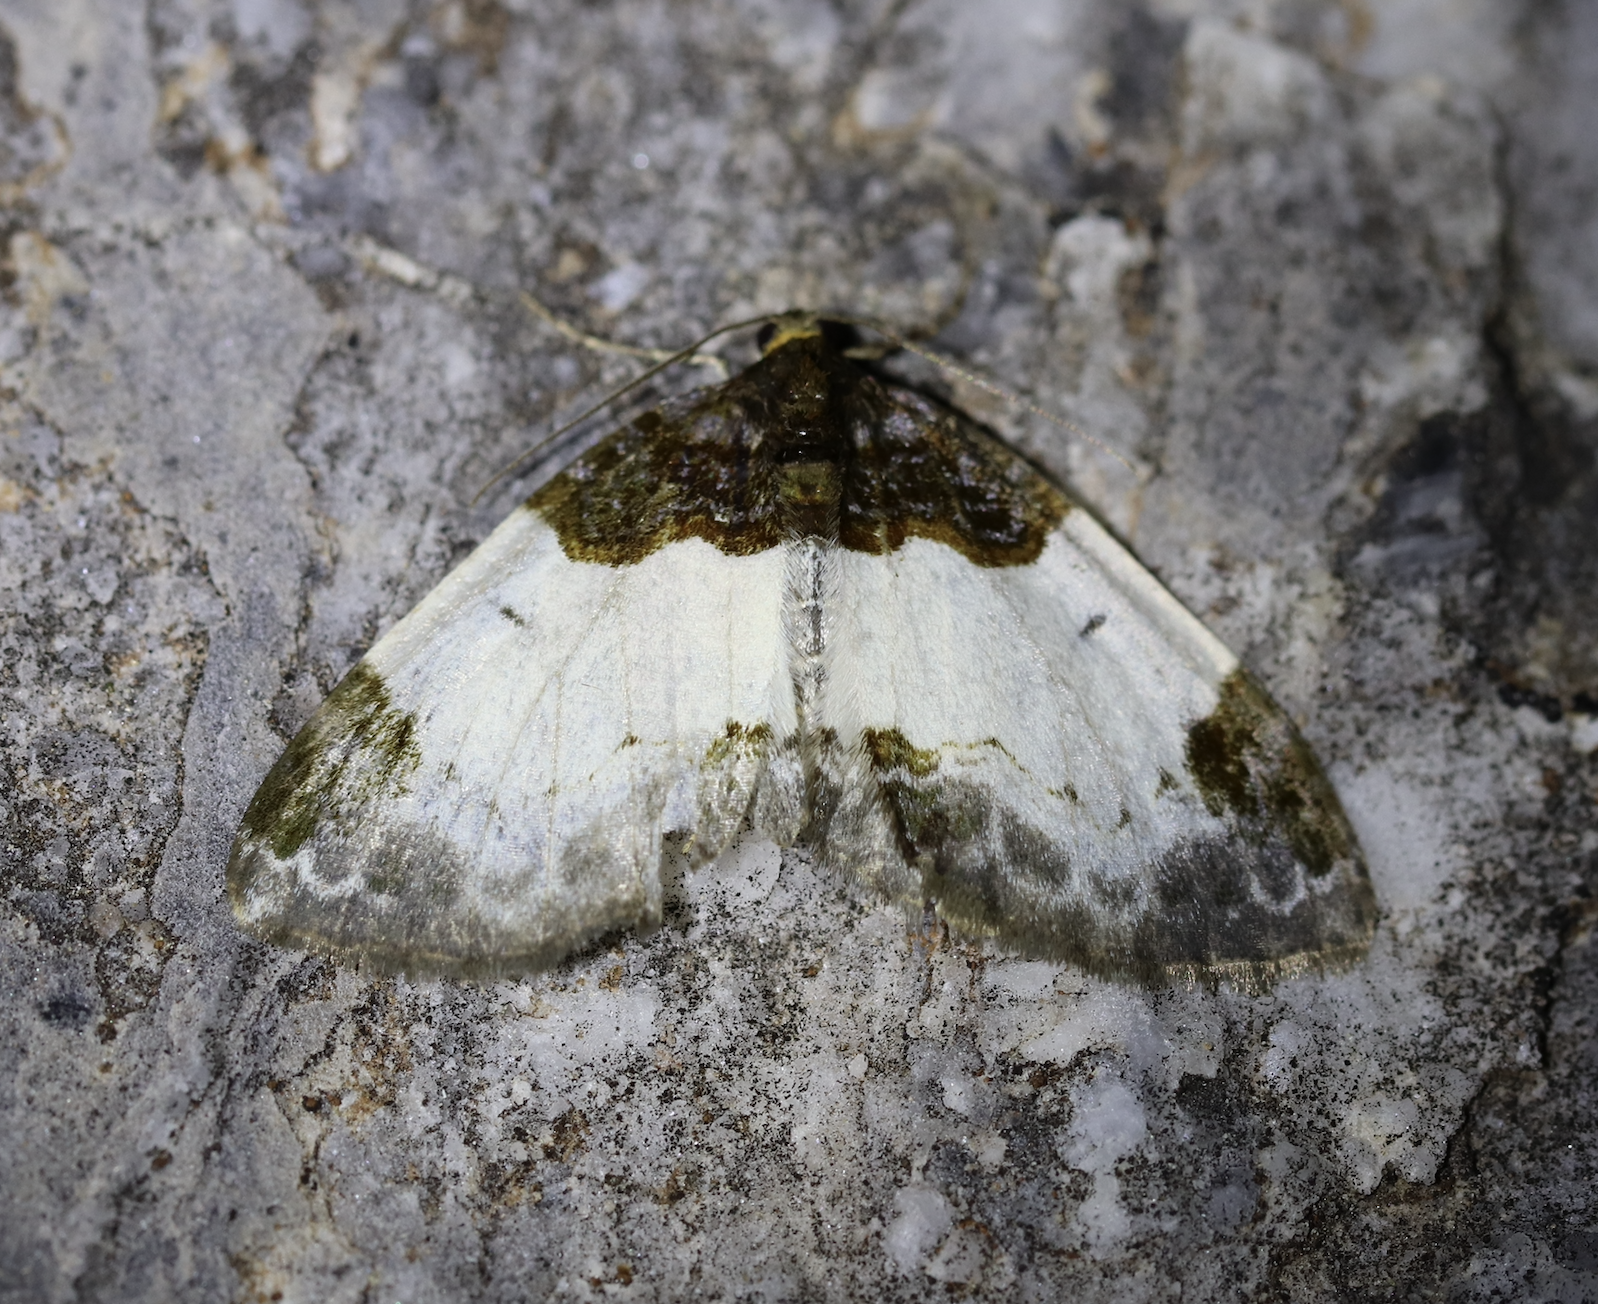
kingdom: Animalia
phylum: Arthropoda
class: Insecta
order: Lepidoptera
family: Geometridae
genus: Mesoleuca
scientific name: Mesoleuca albicillata
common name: Beautiful carpet
